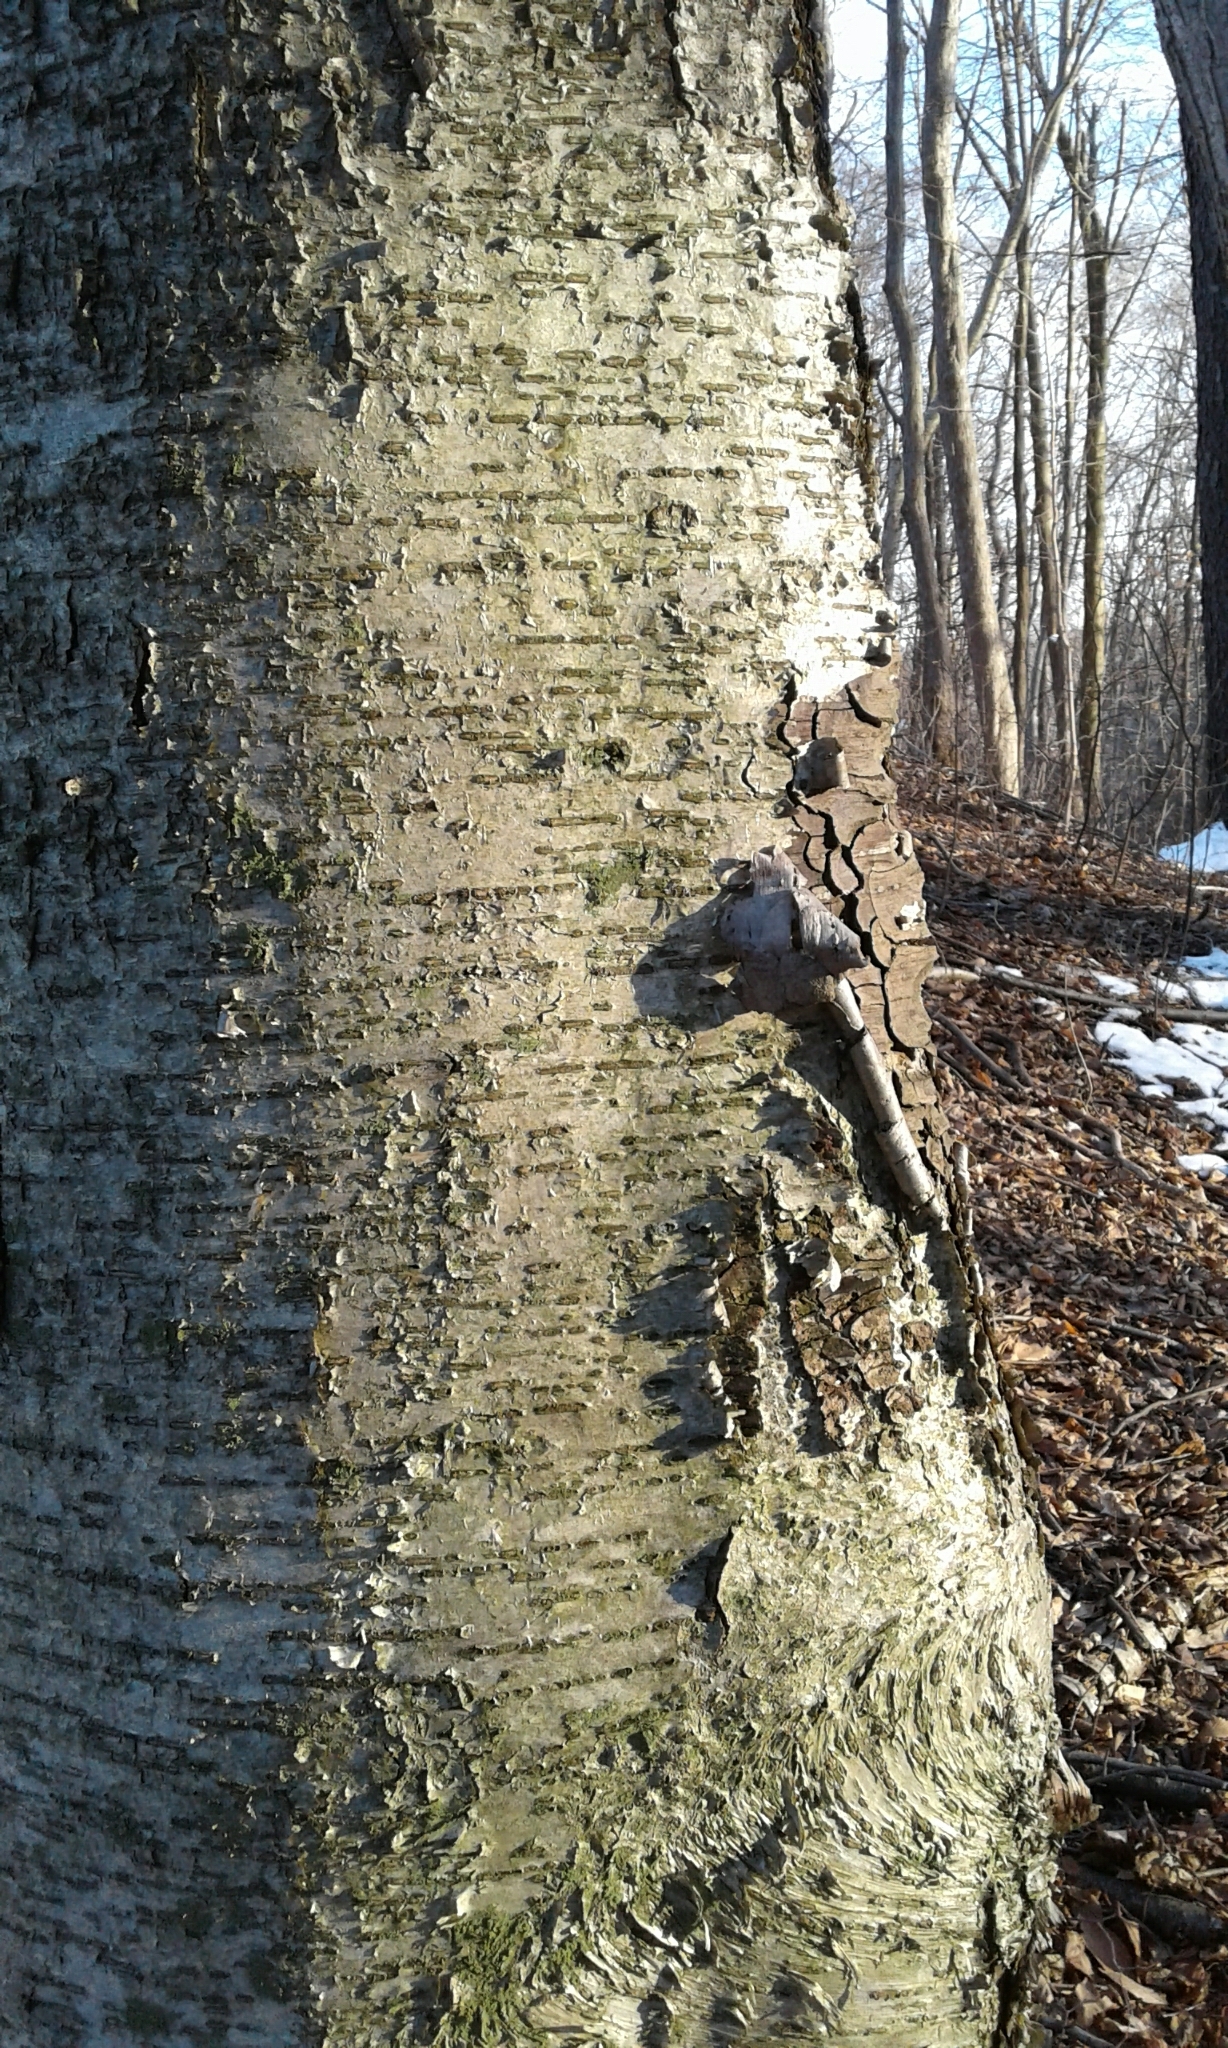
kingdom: Plantae
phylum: Tracheophyta
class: Magnoliopsida
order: Fagales
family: Betulaceae
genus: Betula
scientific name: Betula alleghaniensis
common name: Yellow birch
